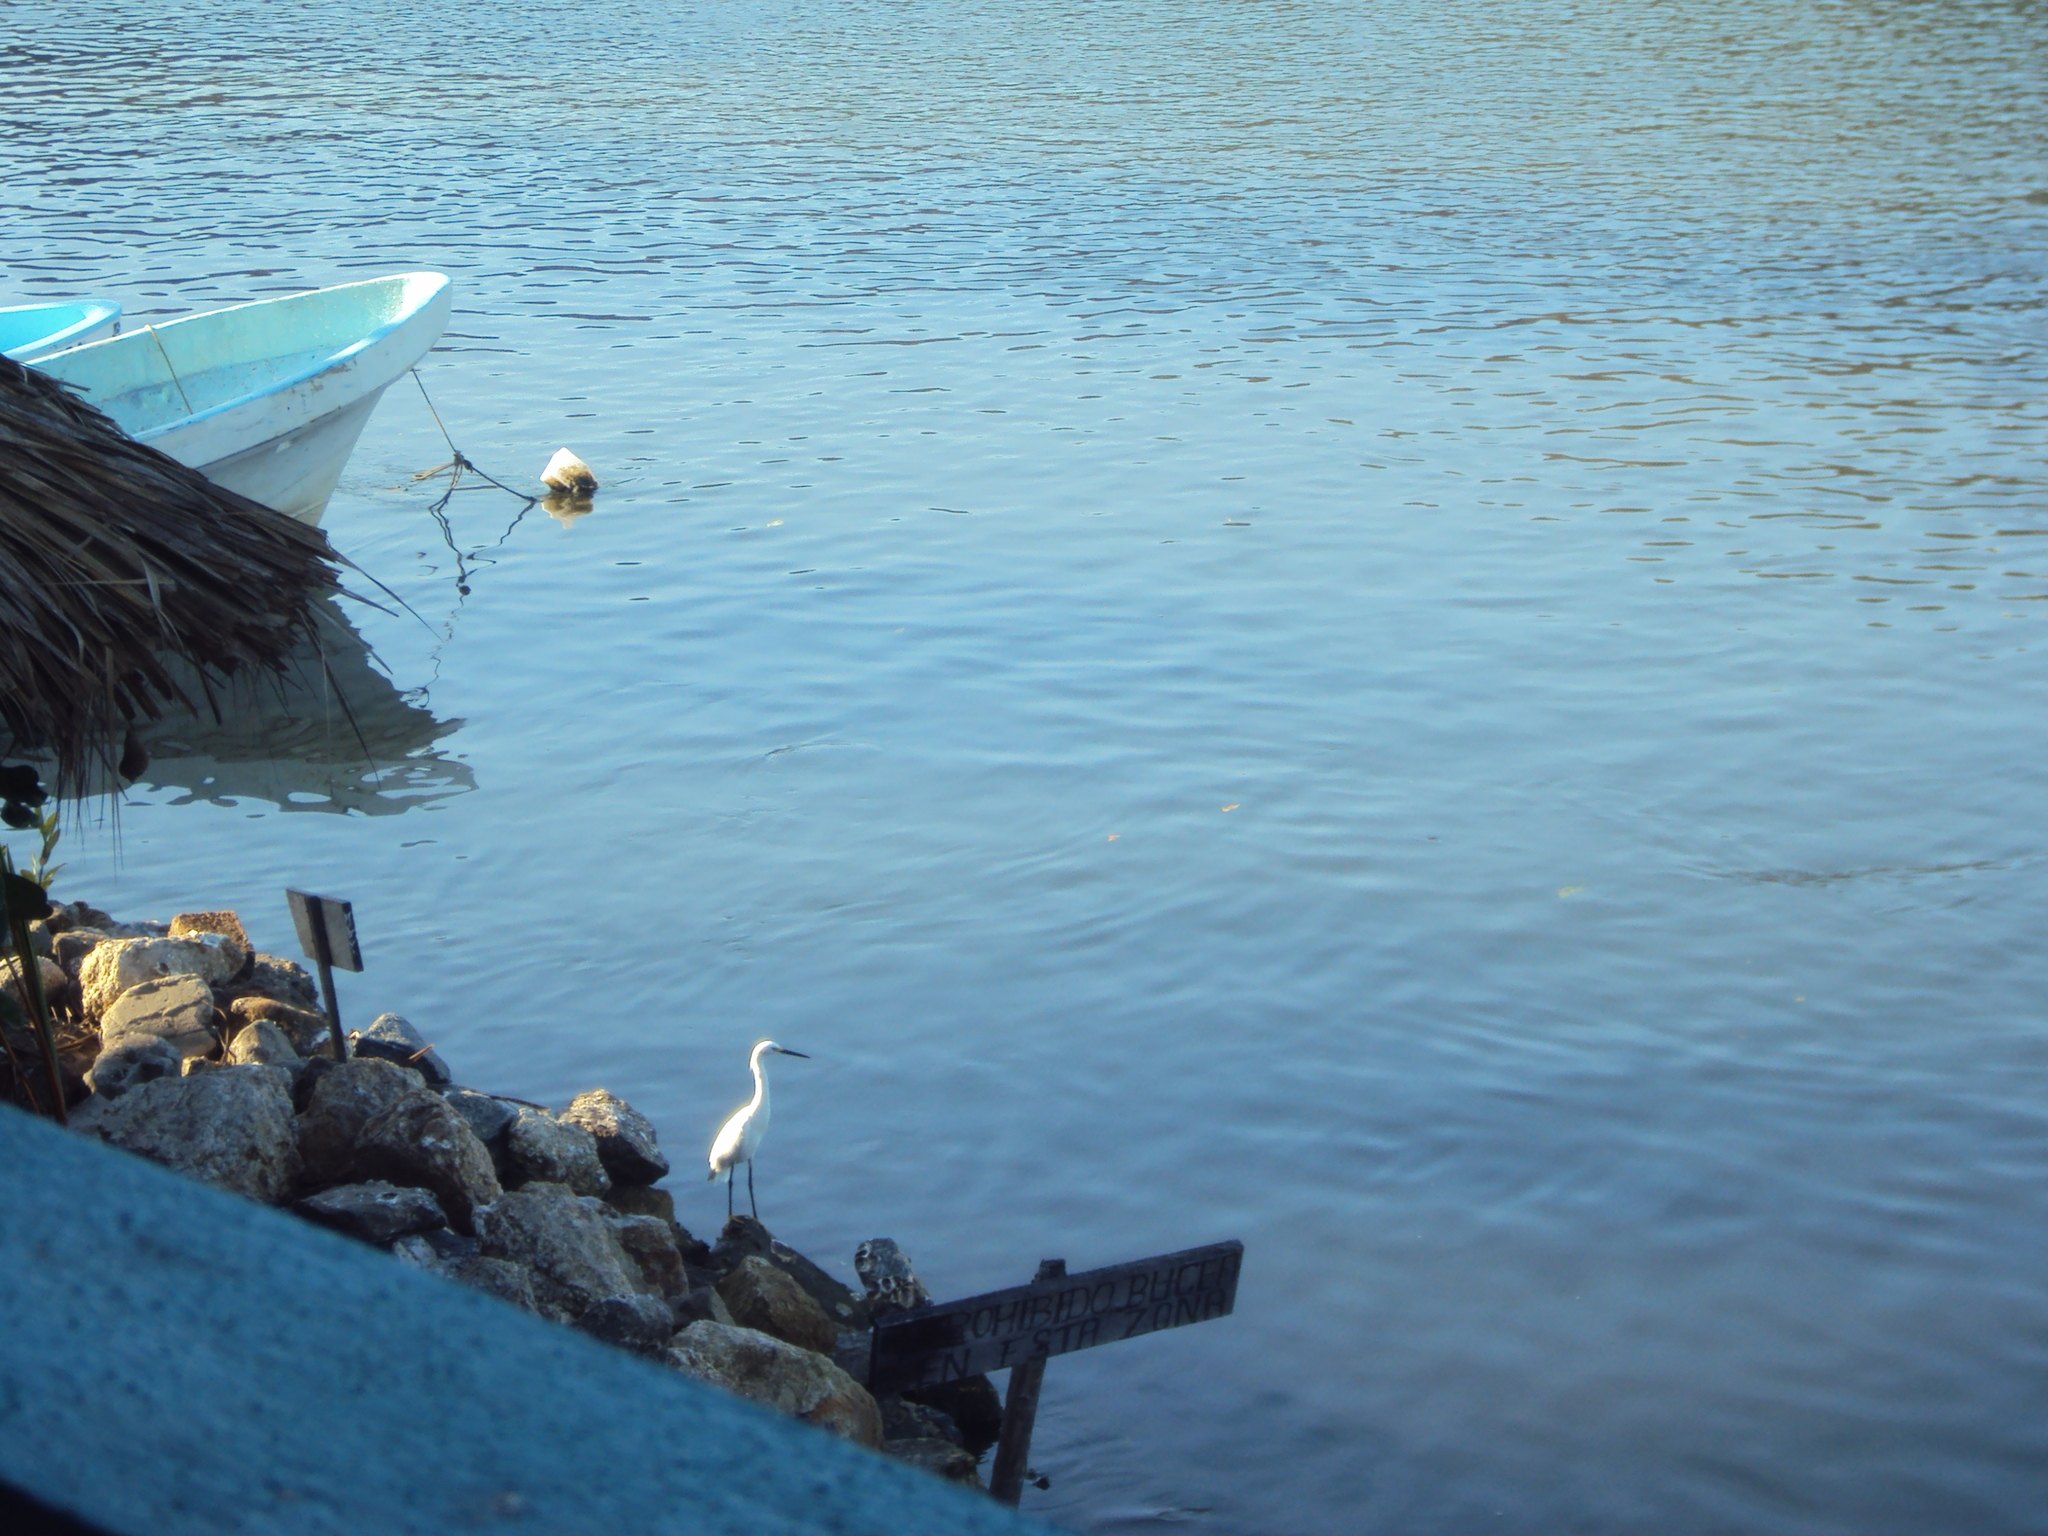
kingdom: Animalia
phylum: Chordata
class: Aves
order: Pelecaniformes
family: Ardeidae
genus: Egretta
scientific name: Egretta thula
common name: Snowy egret
